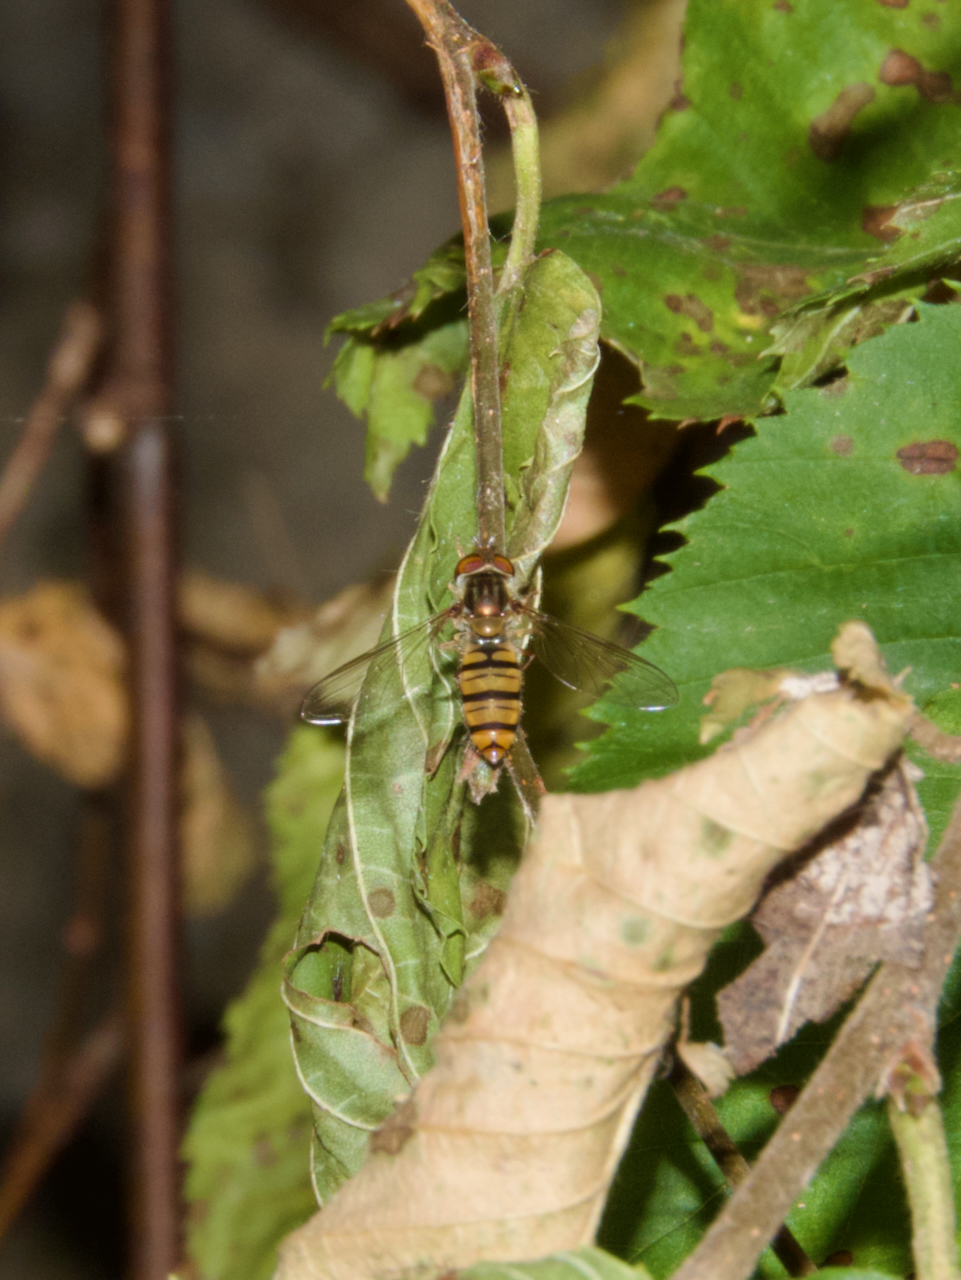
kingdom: Animalia
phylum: Arthropoda
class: Insecta
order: Diptera
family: Syrphidae
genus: Episyrphus
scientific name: Episyrphus balteatus
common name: Marmalade hoverfly
